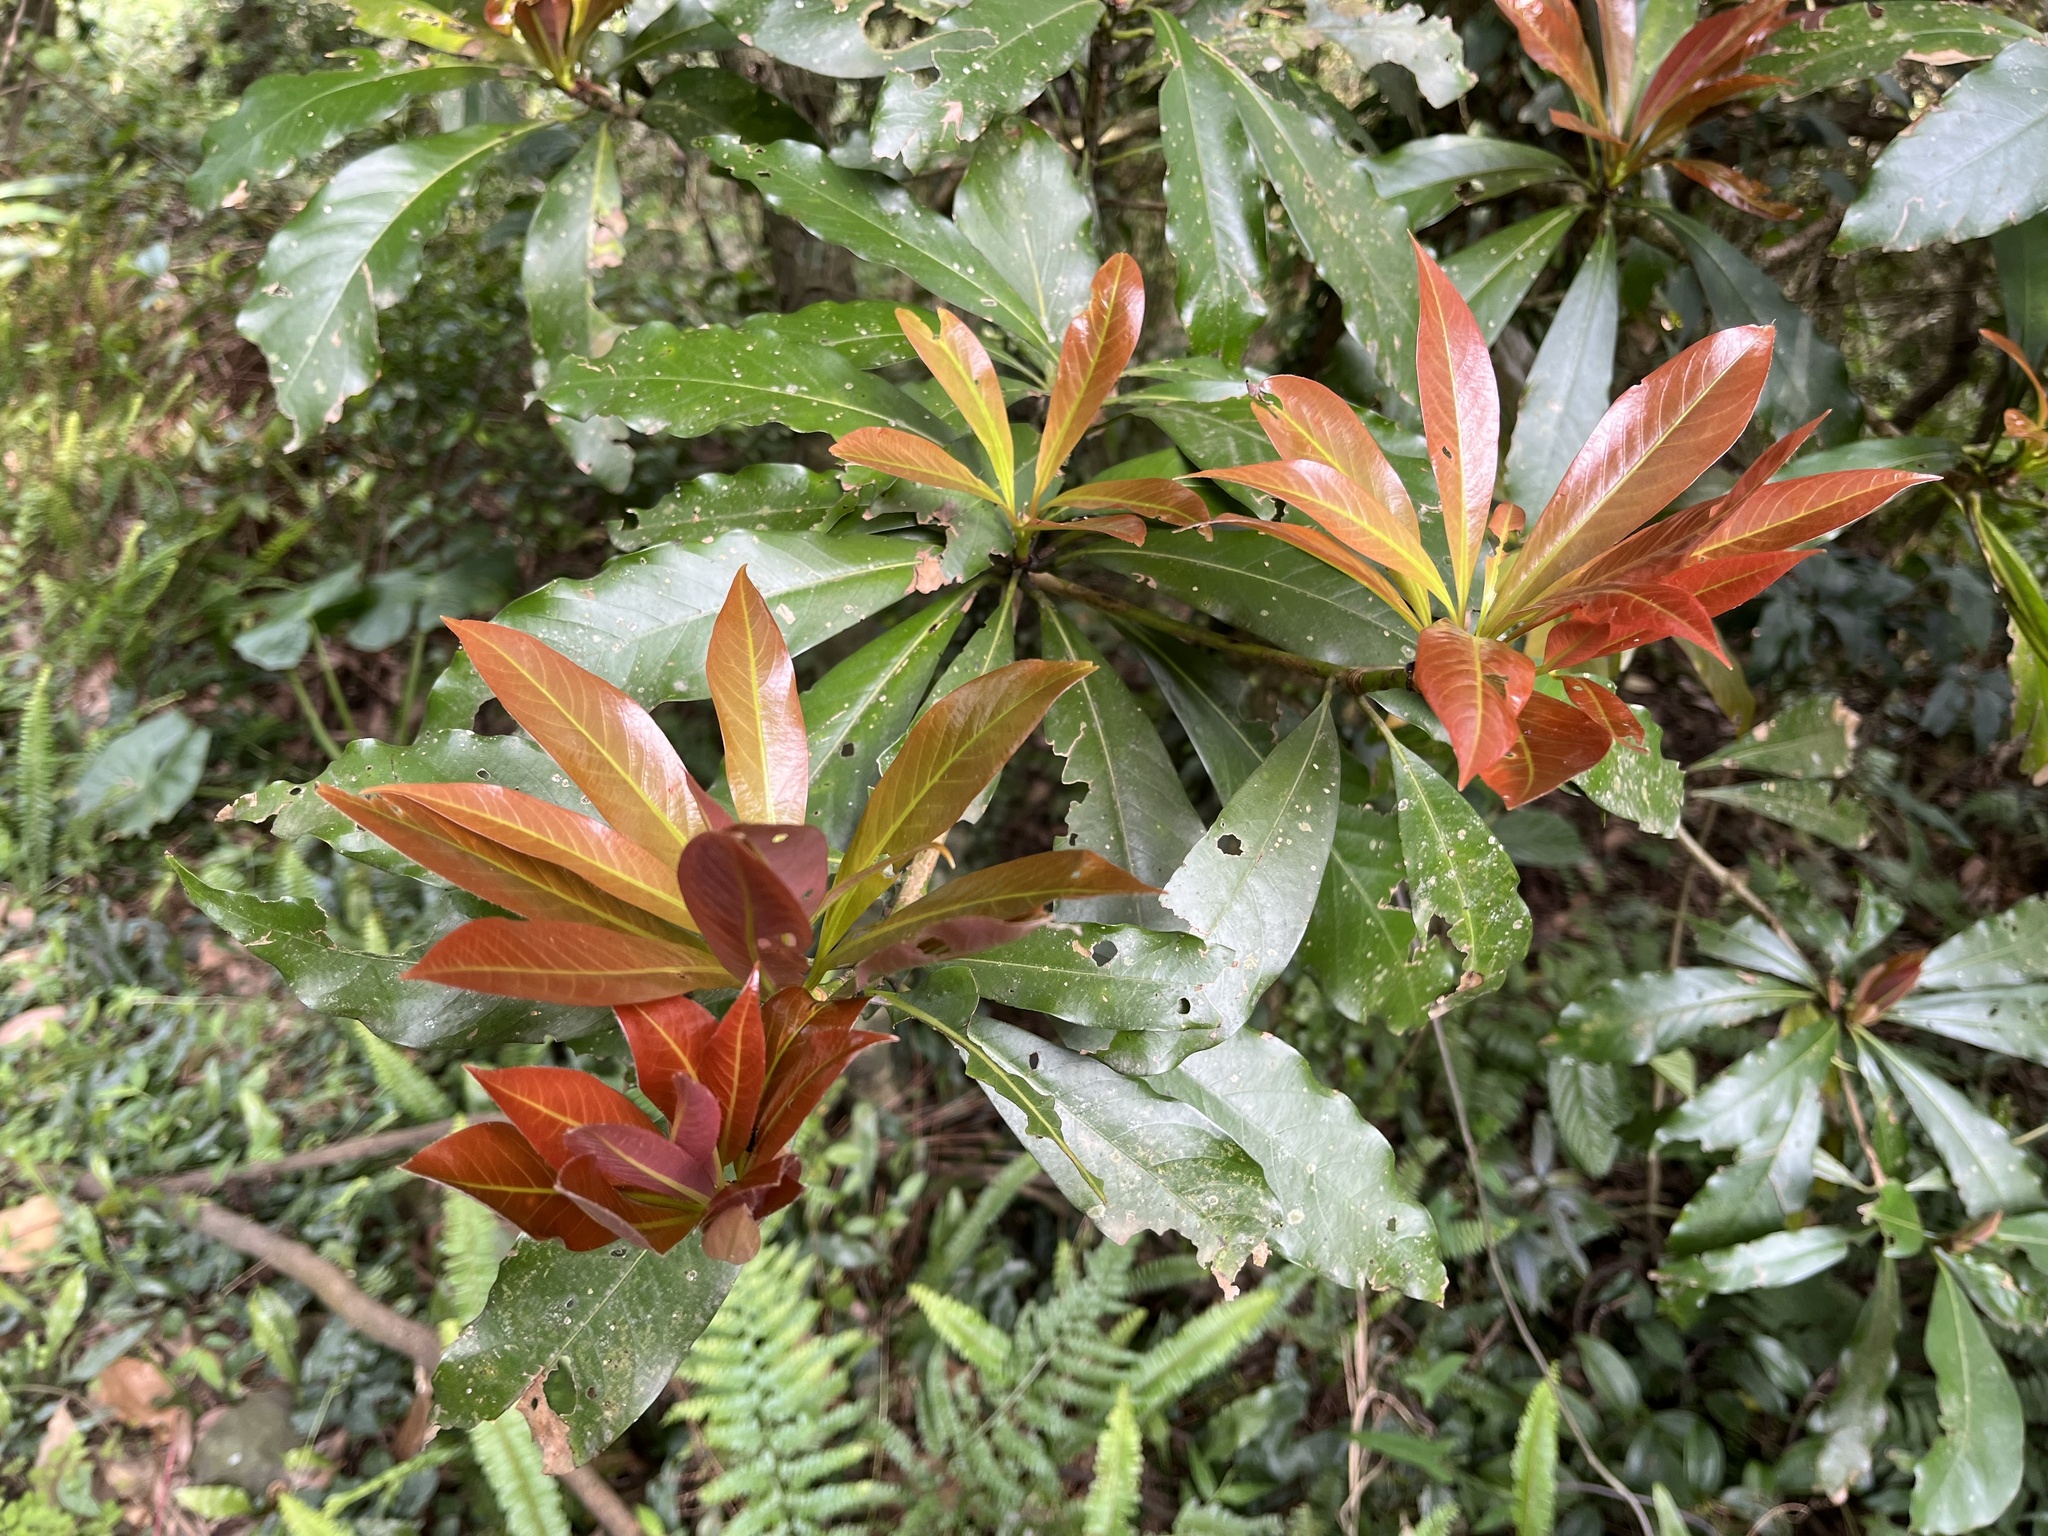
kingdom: Plantae
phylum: Tracheophyta
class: Magnoliopsida
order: Laurales
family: Lauraceae
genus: Machilus
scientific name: Machilus japonica
